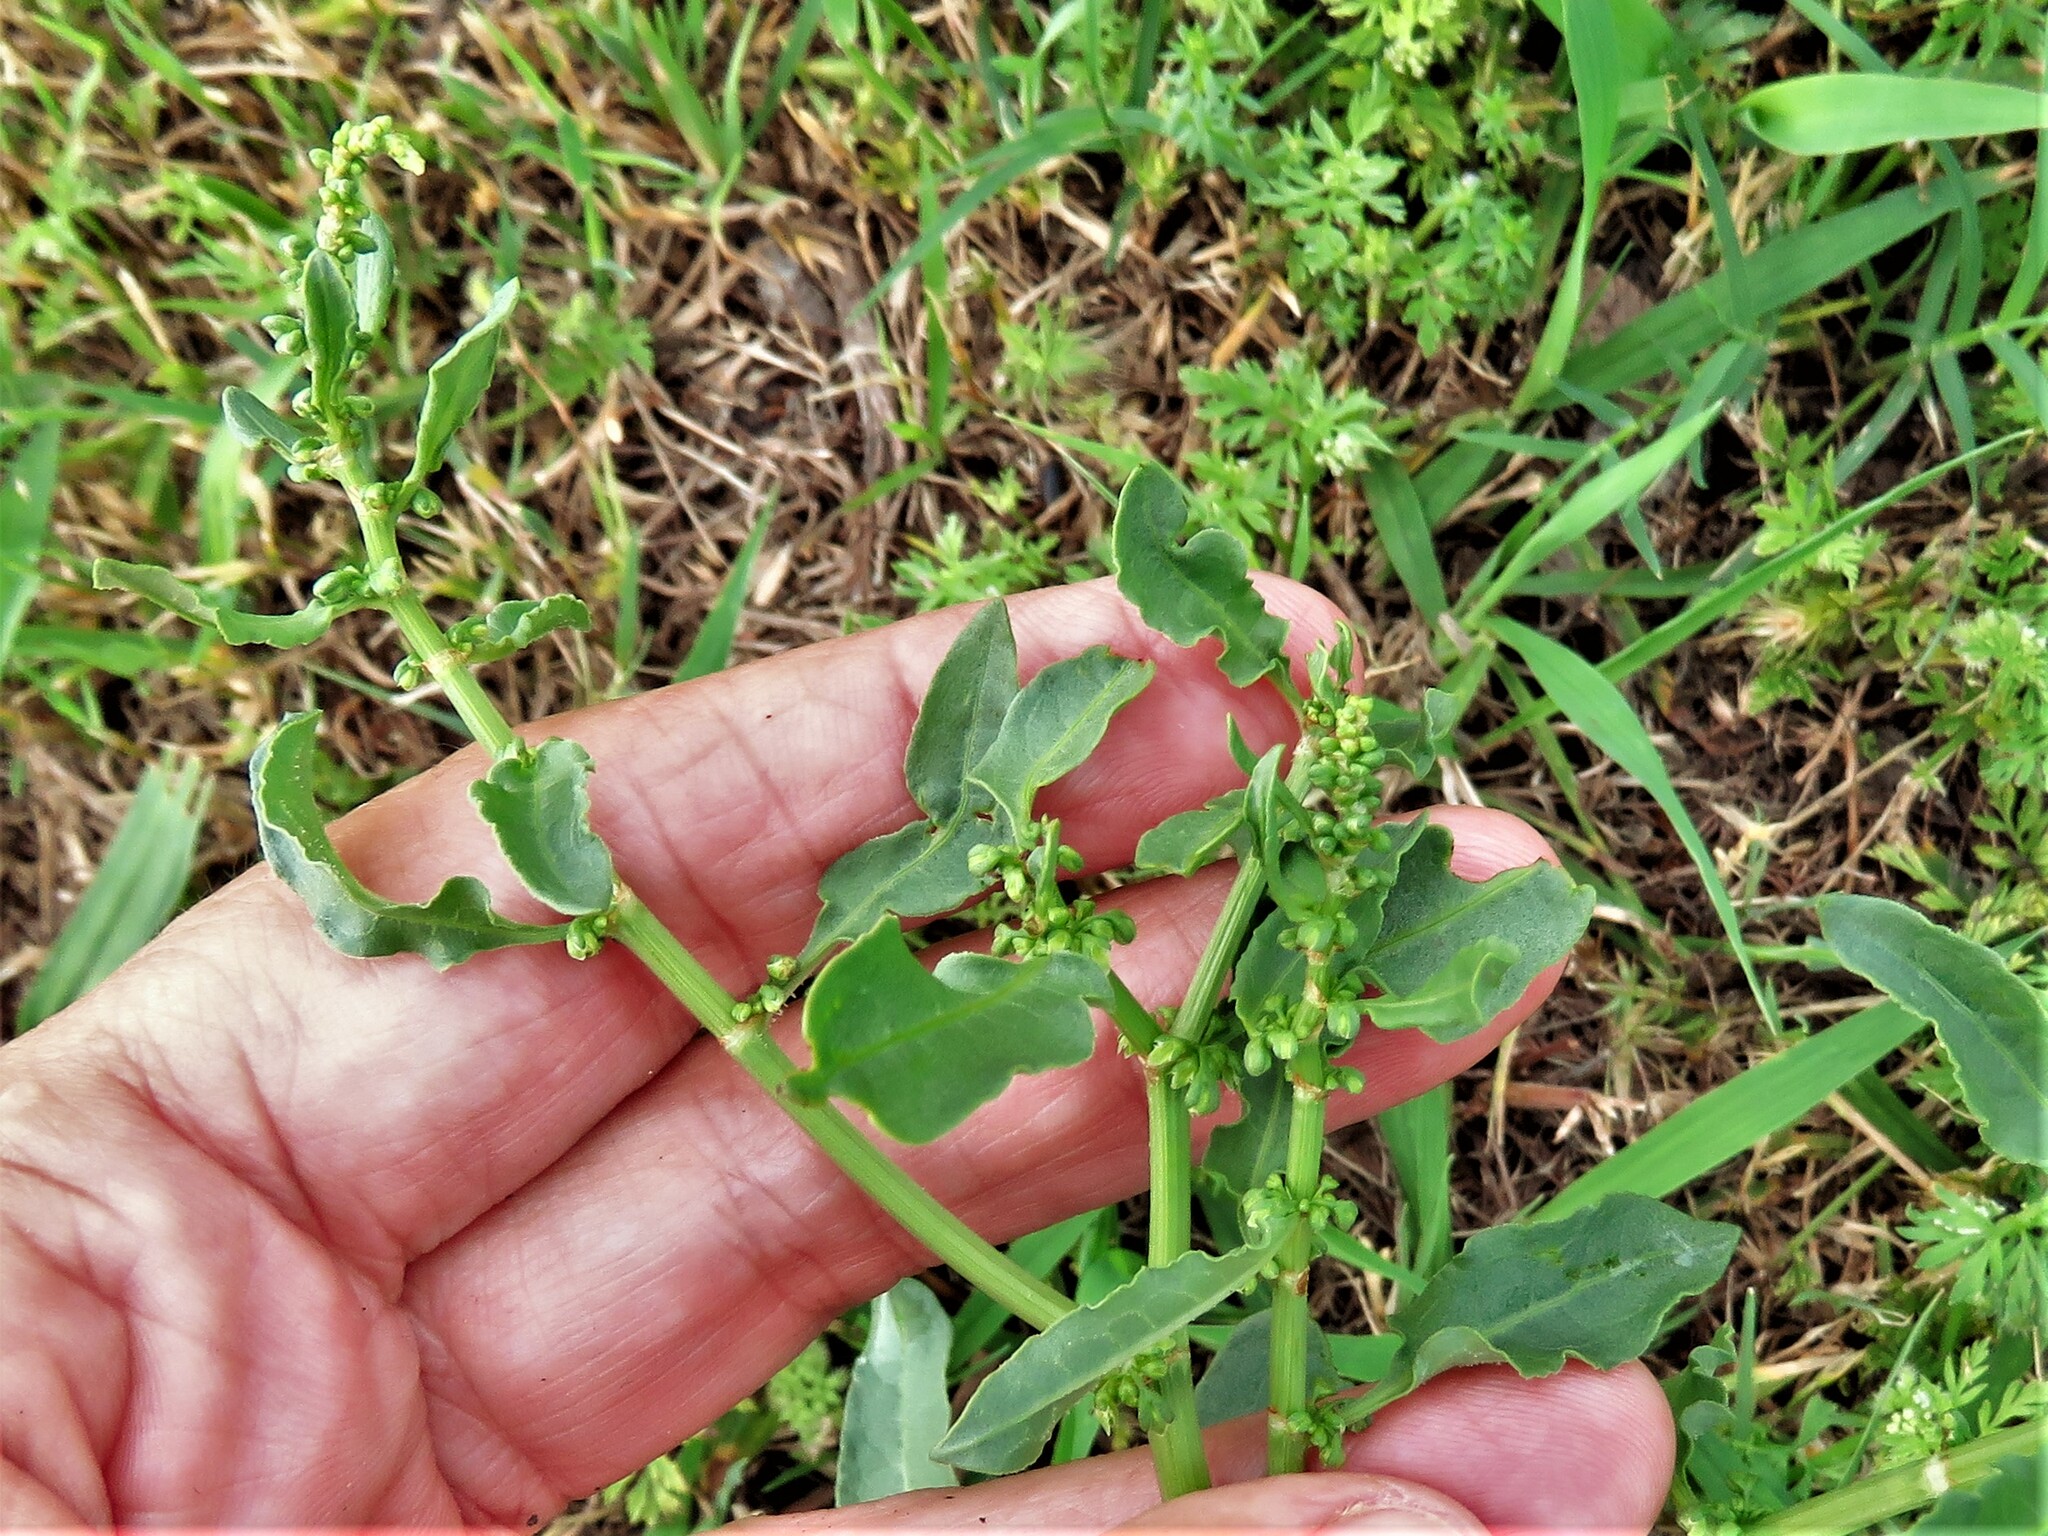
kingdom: Plantae
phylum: Tracheophyta
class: Magnoliopsida
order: Caryophyllales
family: Polygonaceae
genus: Rumex
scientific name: Rumex pulcher
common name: Fiddle dock
